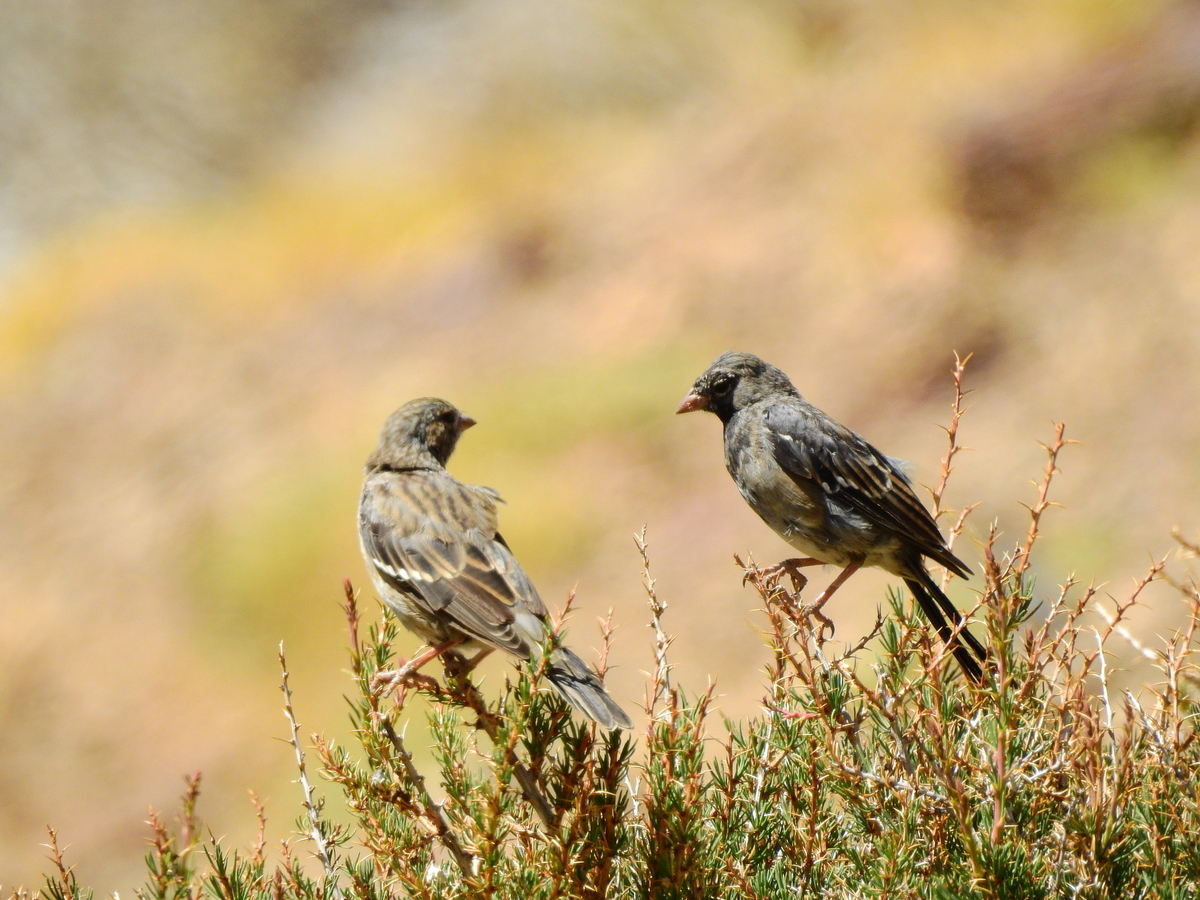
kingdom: Animalia
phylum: Chordata
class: Aves
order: Passeriformes
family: Thraupidae
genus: Rhopospina
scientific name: Rhopospina fruticeti
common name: Mourning sierra finch
